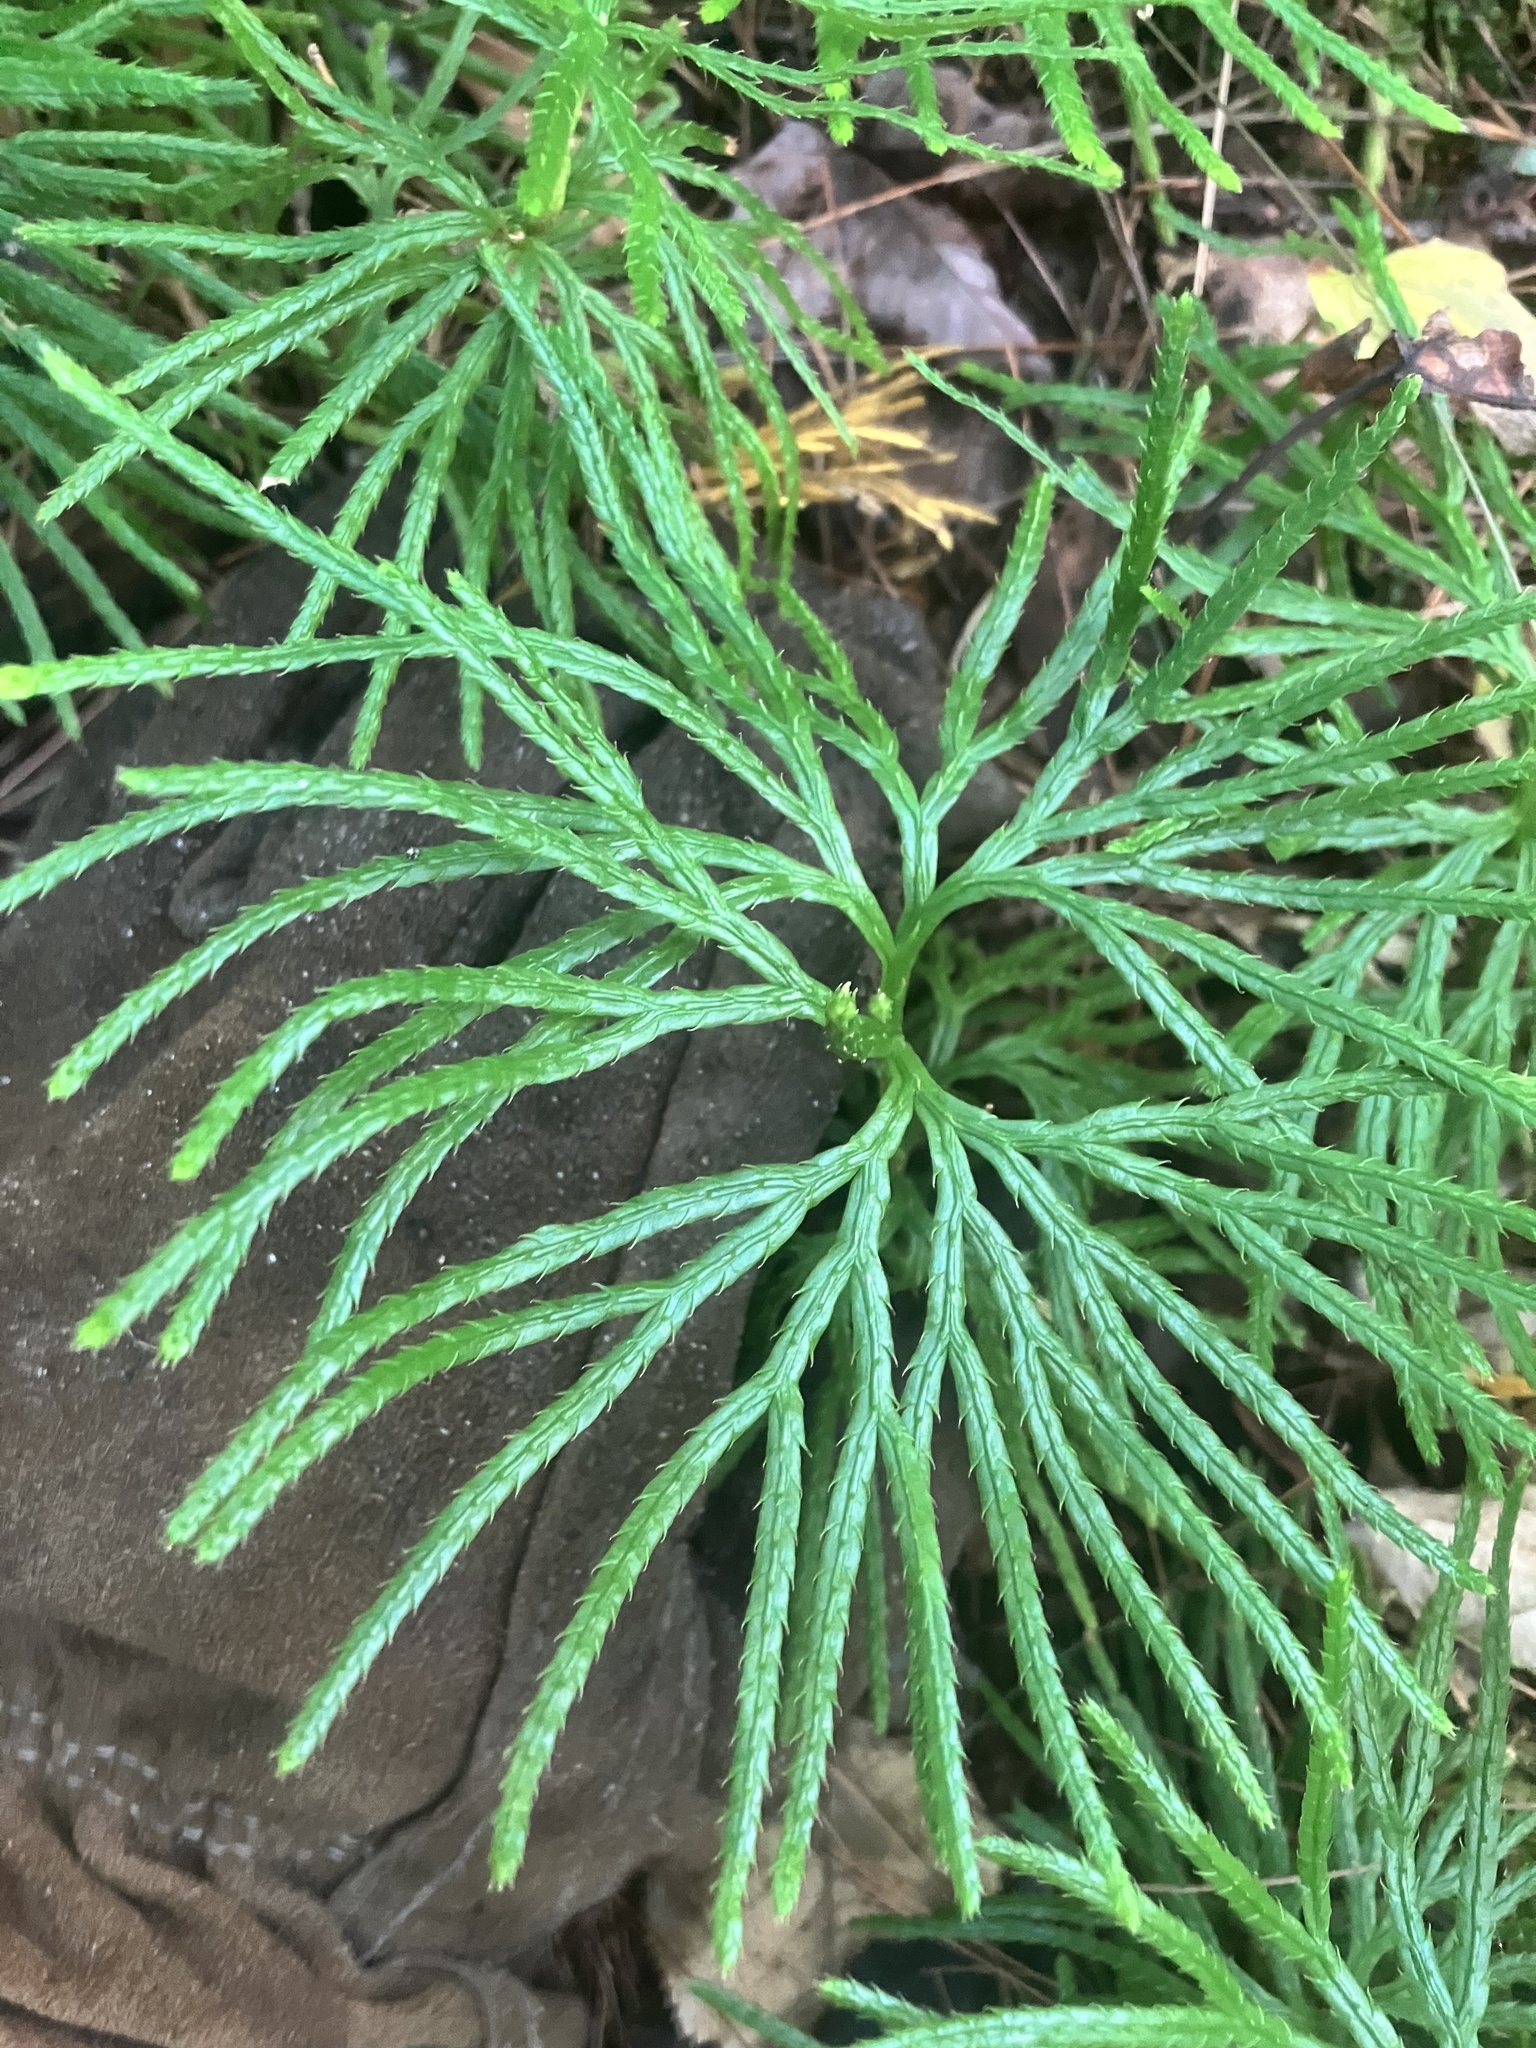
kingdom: Plantae
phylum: Tracheophyta
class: Lycopodiopsida
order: Lycopodiales
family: Lycopodiaceae
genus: Diphasiastrum
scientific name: Diphasiastrum digitatum
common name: Southern running-pine
